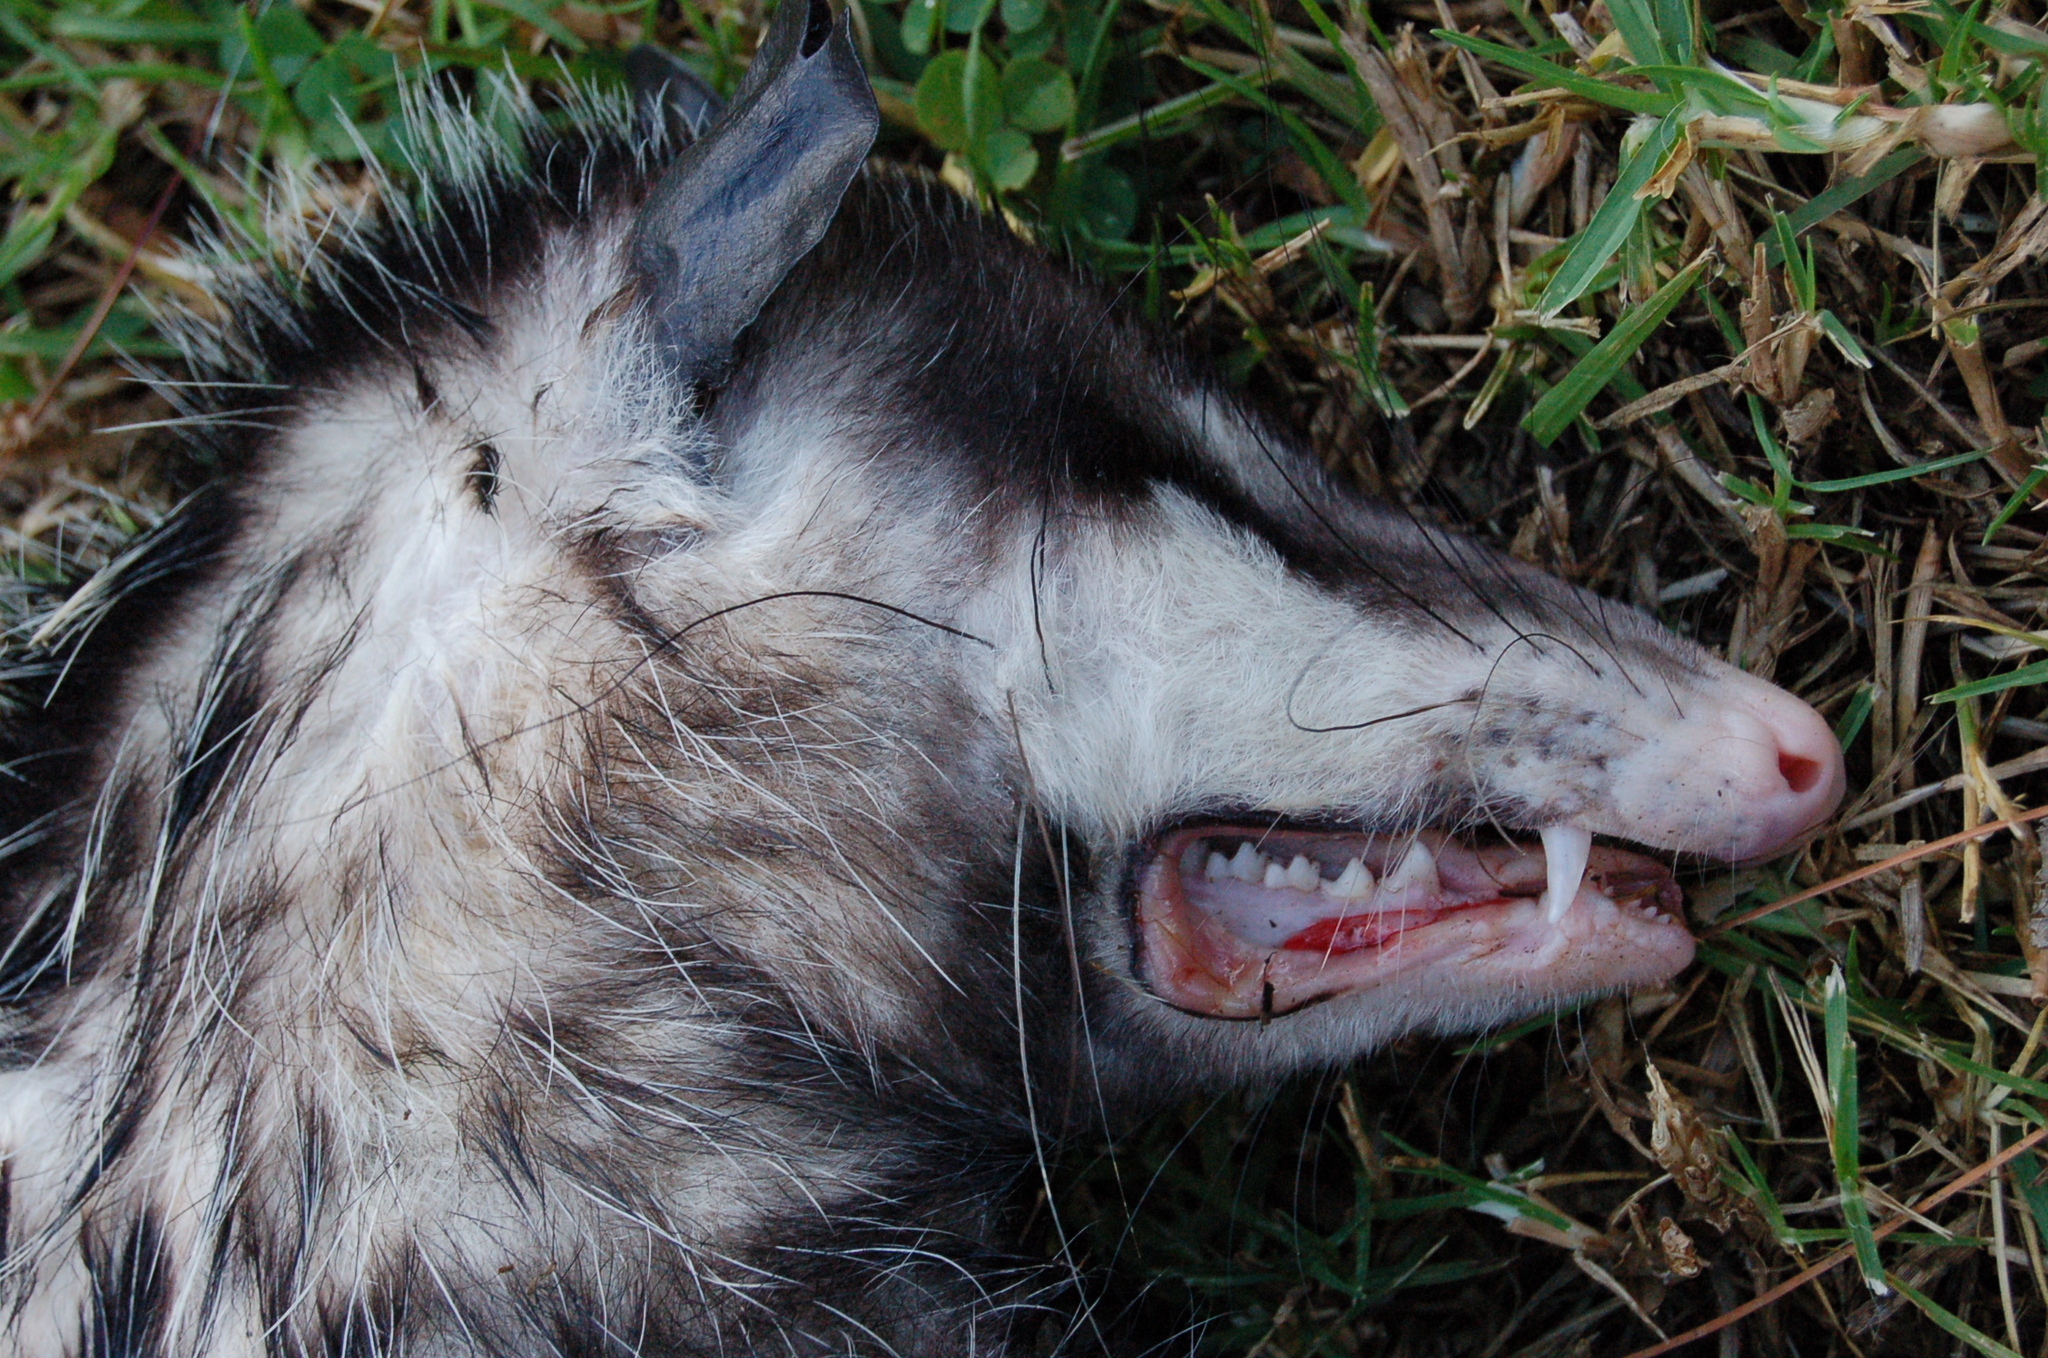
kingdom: Animalia
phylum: Chordata
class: Mammalia
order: Didelphimorphia
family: Didelphidae
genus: Didelphis
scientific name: Didelphis virginiana
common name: Virginia opossum
